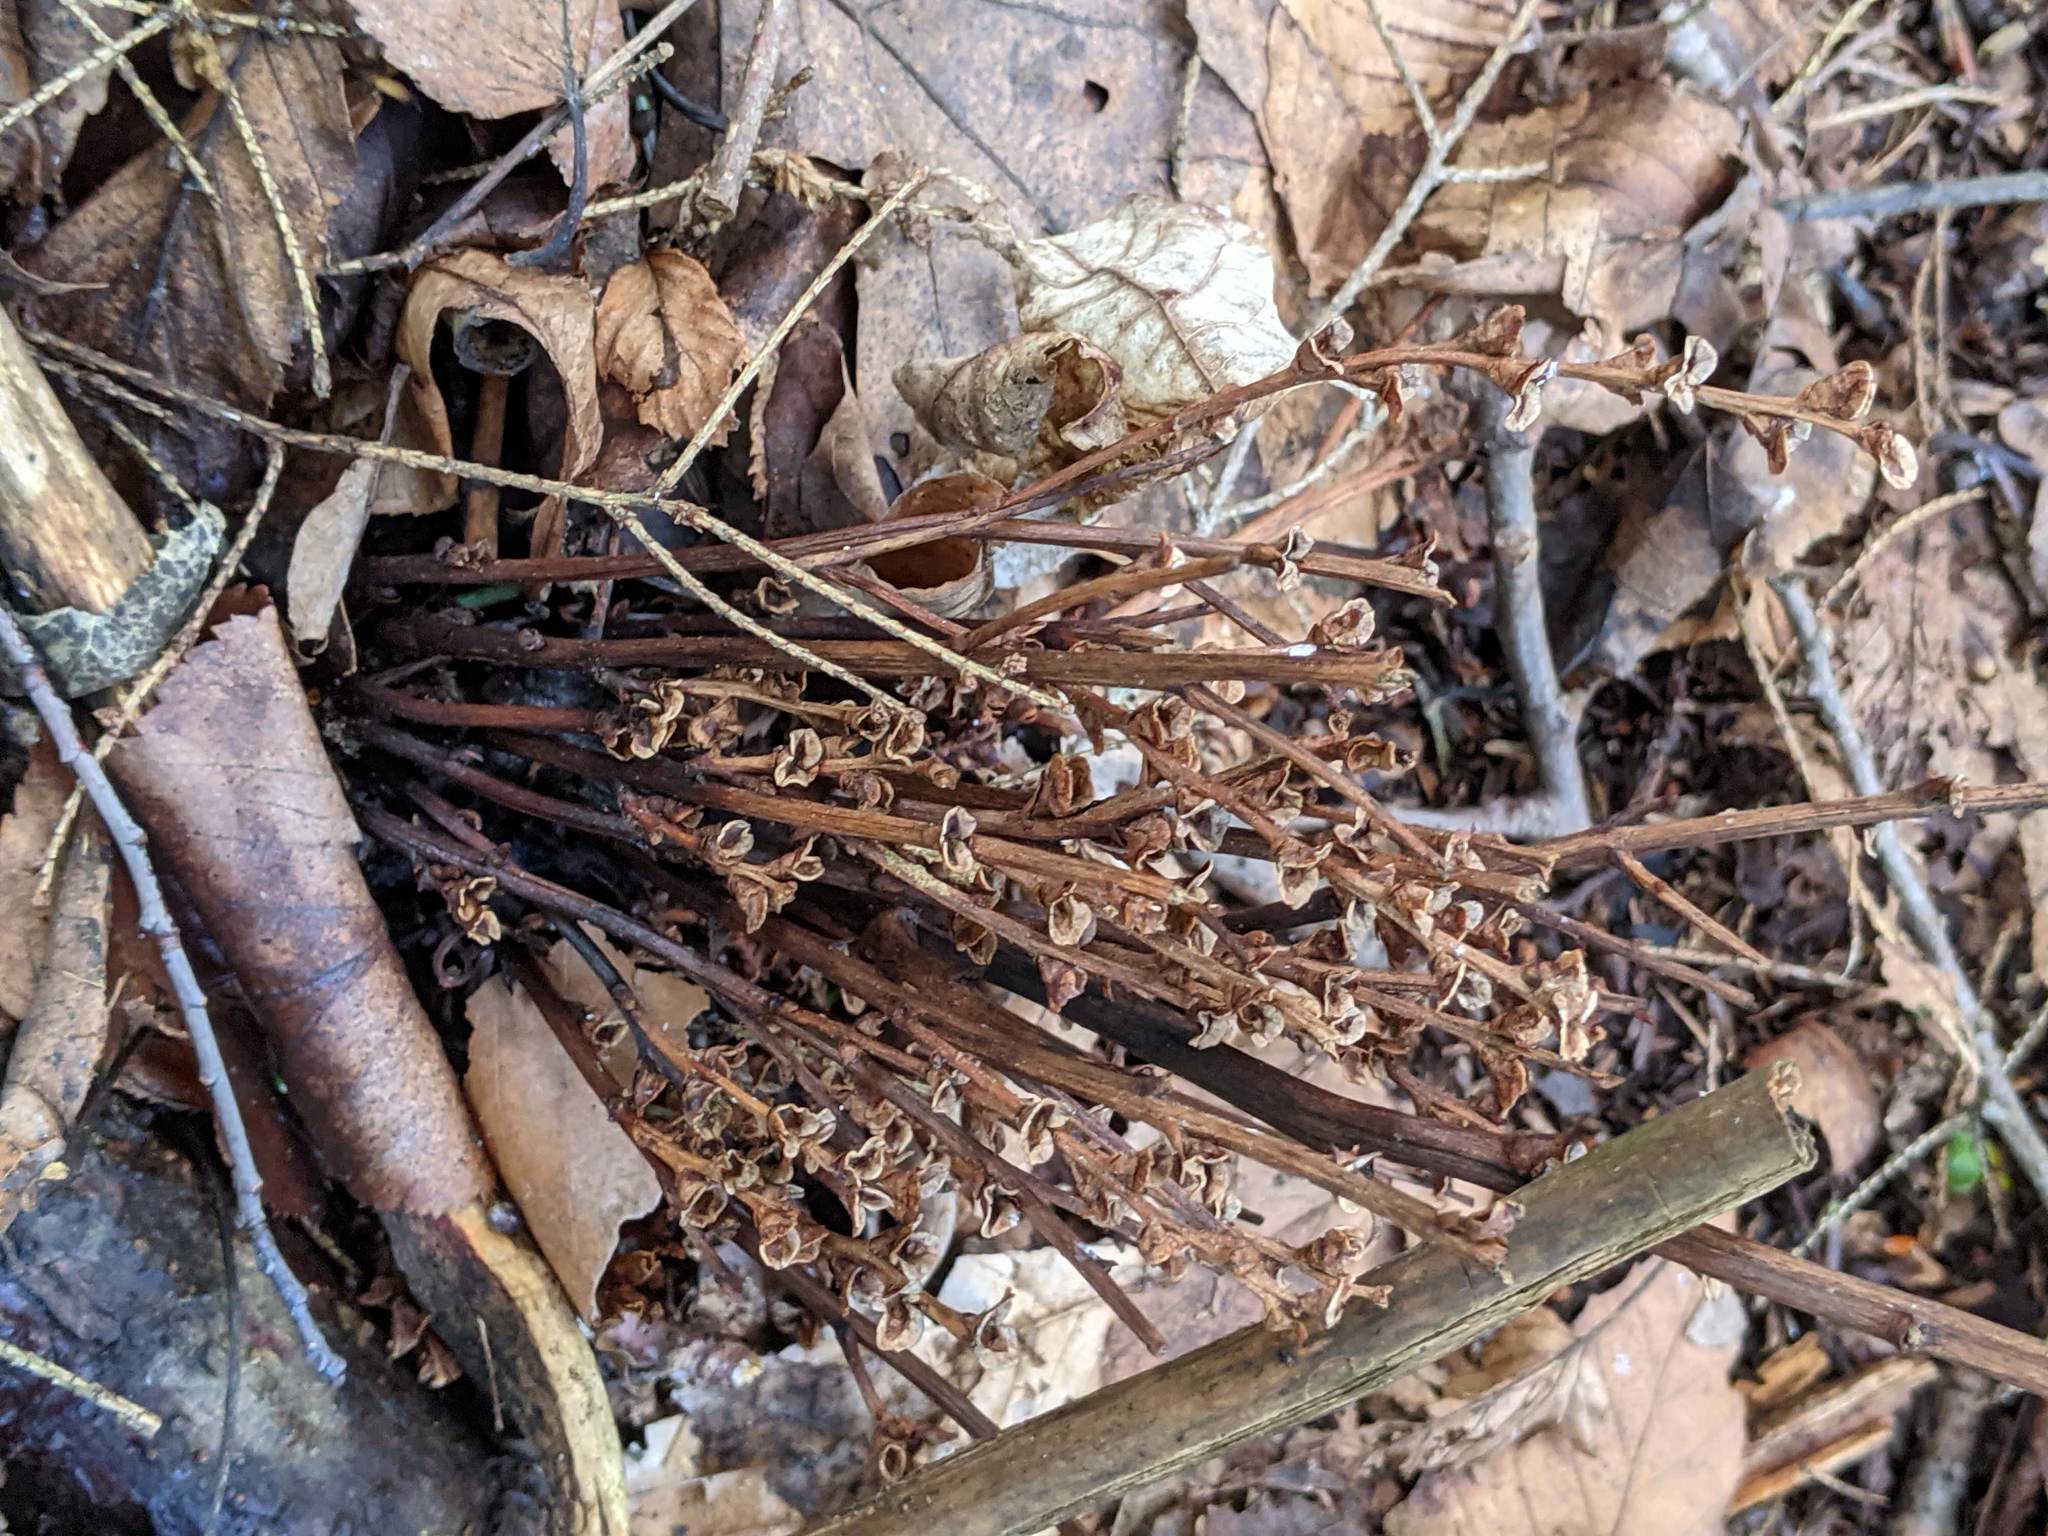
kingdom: Plantae
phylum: Tracheophyta
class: Magnoliopsida
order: Lamiales
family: Orobanchaceae
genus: Epifagus
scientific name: Epifagus virginiana
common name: Beechdrops
